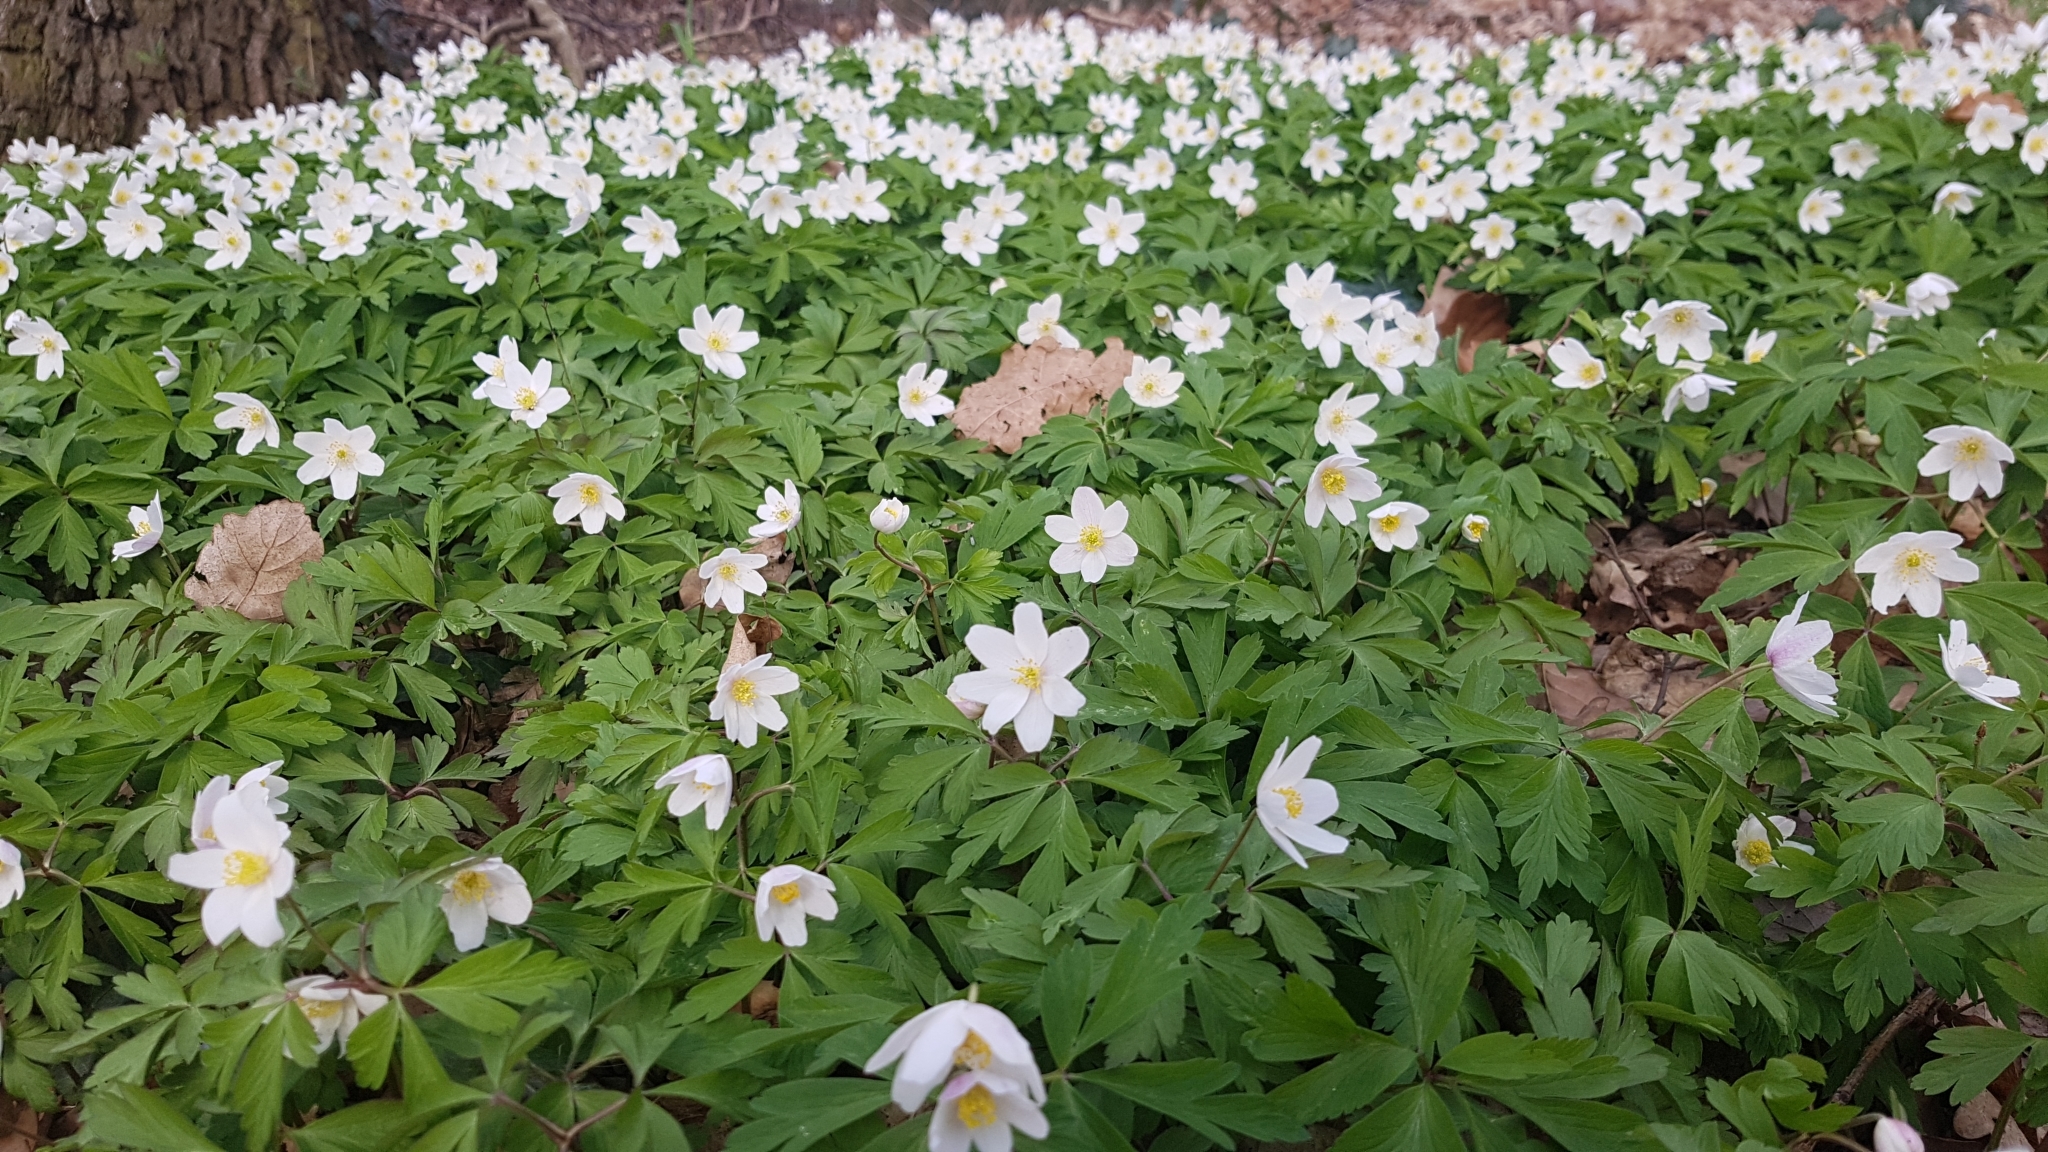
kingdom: Plantae
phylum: Tracheophyta
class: Magnoliopsida
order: Ranunculales
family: Ranunculaceae
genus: Anemone
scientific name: Anemone nemorosa
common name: Wood anemone
